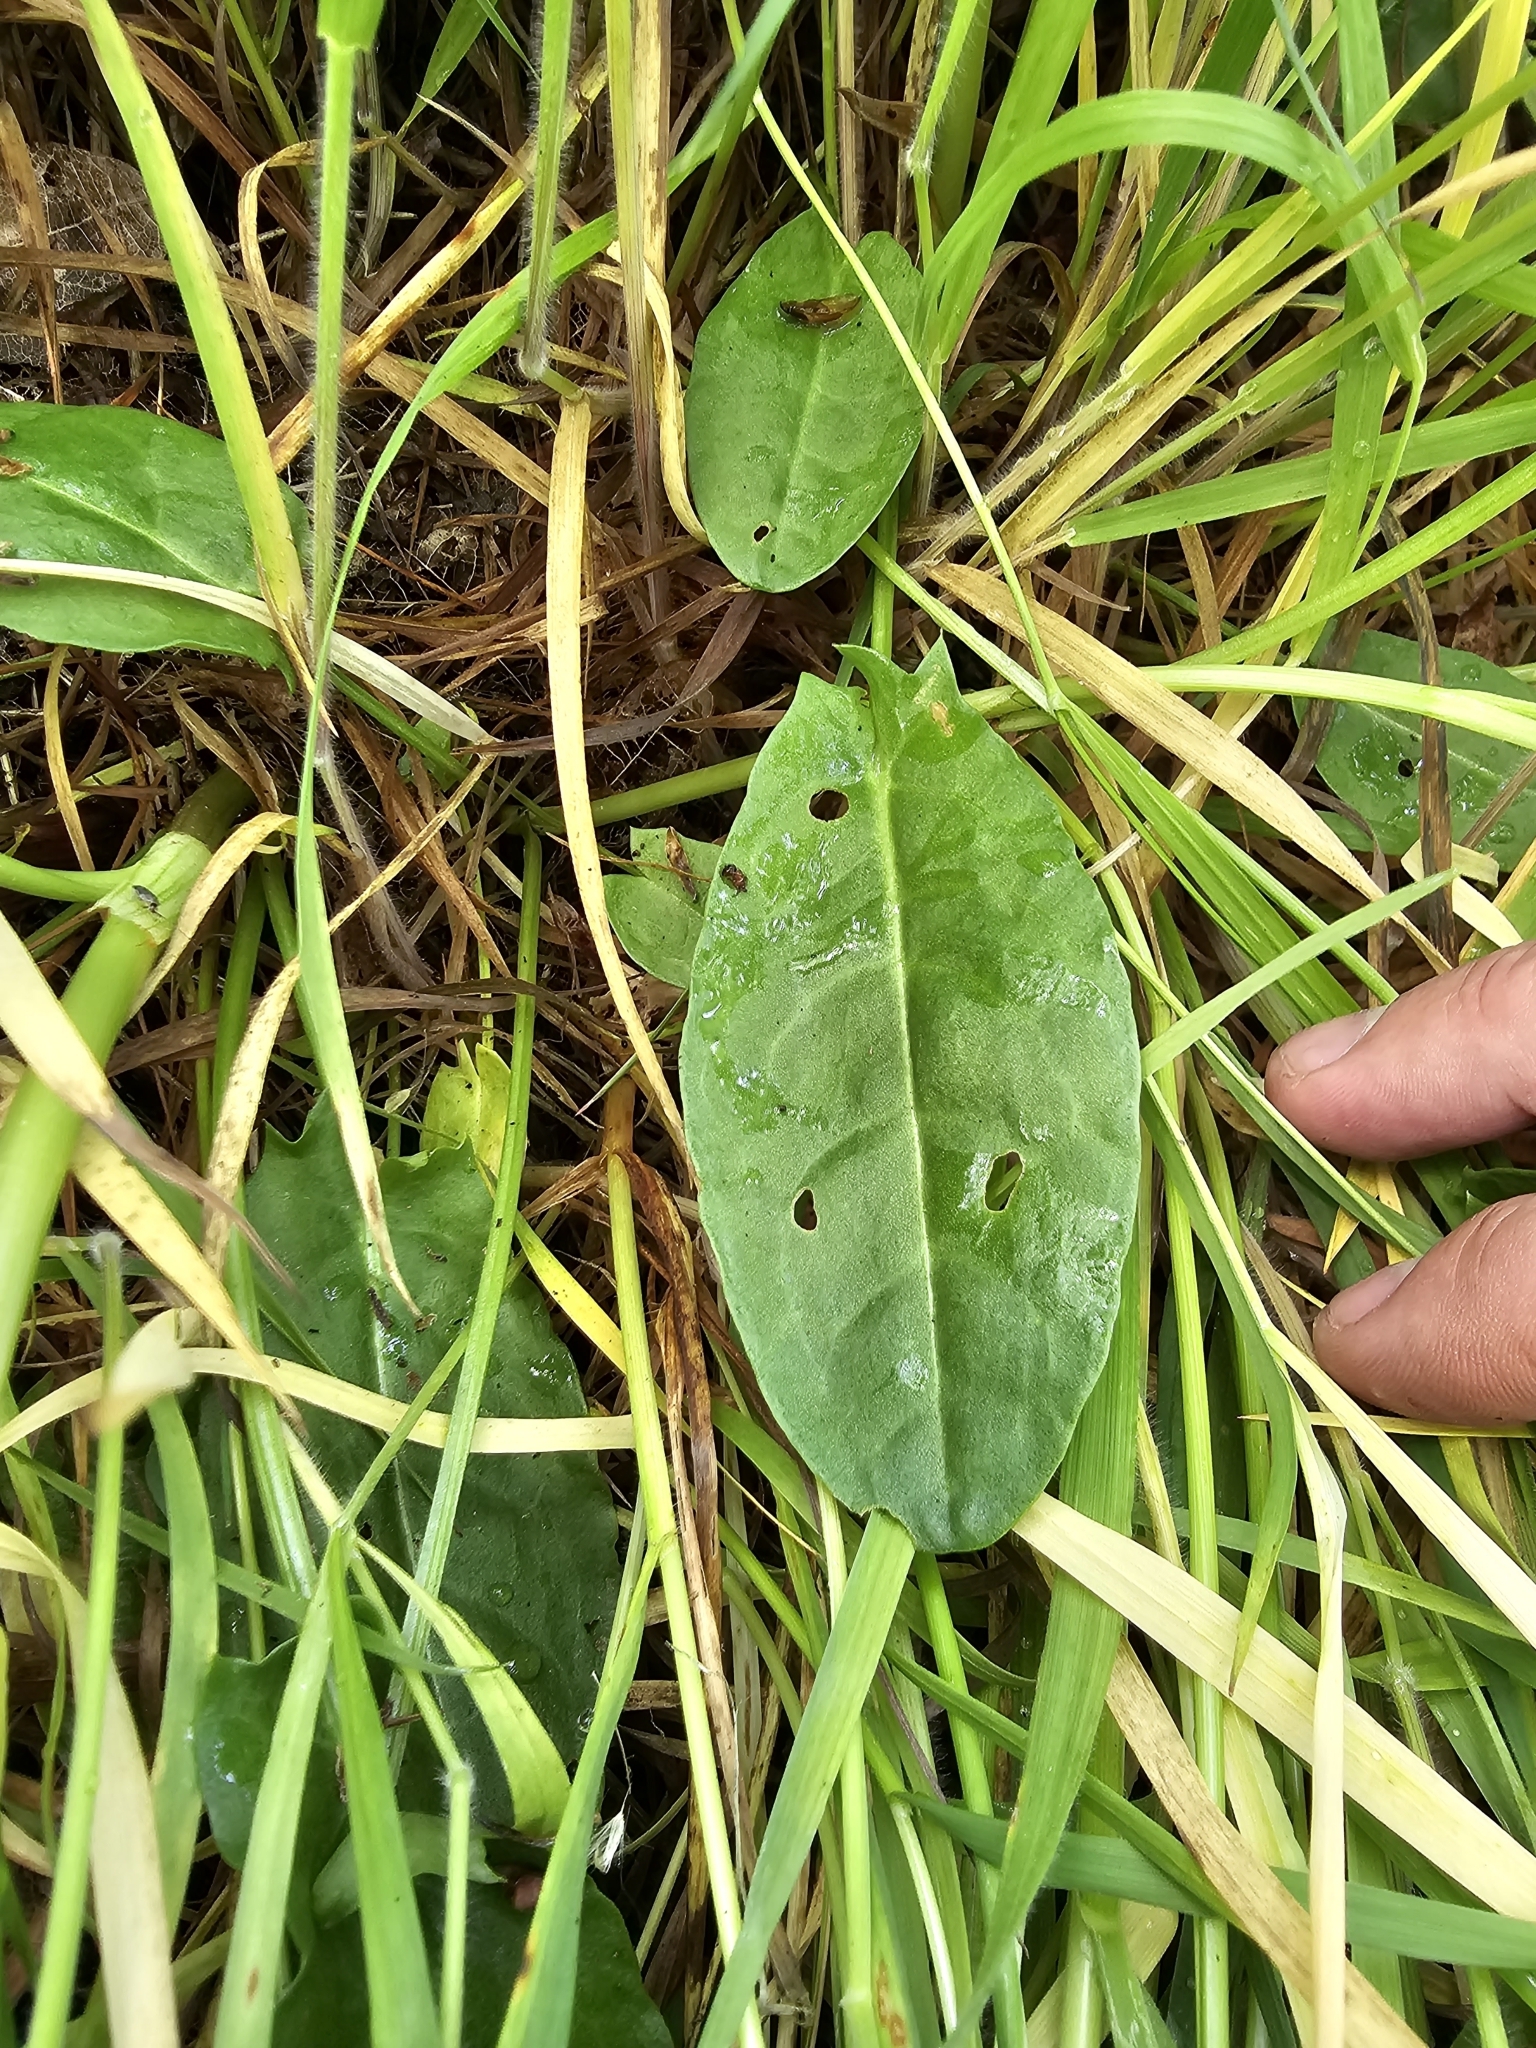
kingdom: Plantae
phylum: Tracheophyta
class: Magnoliopsida
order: Caryophyllales
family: Polygonaceae
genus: Rumex
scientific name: Rumex acetosa
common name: Garden sorrel
